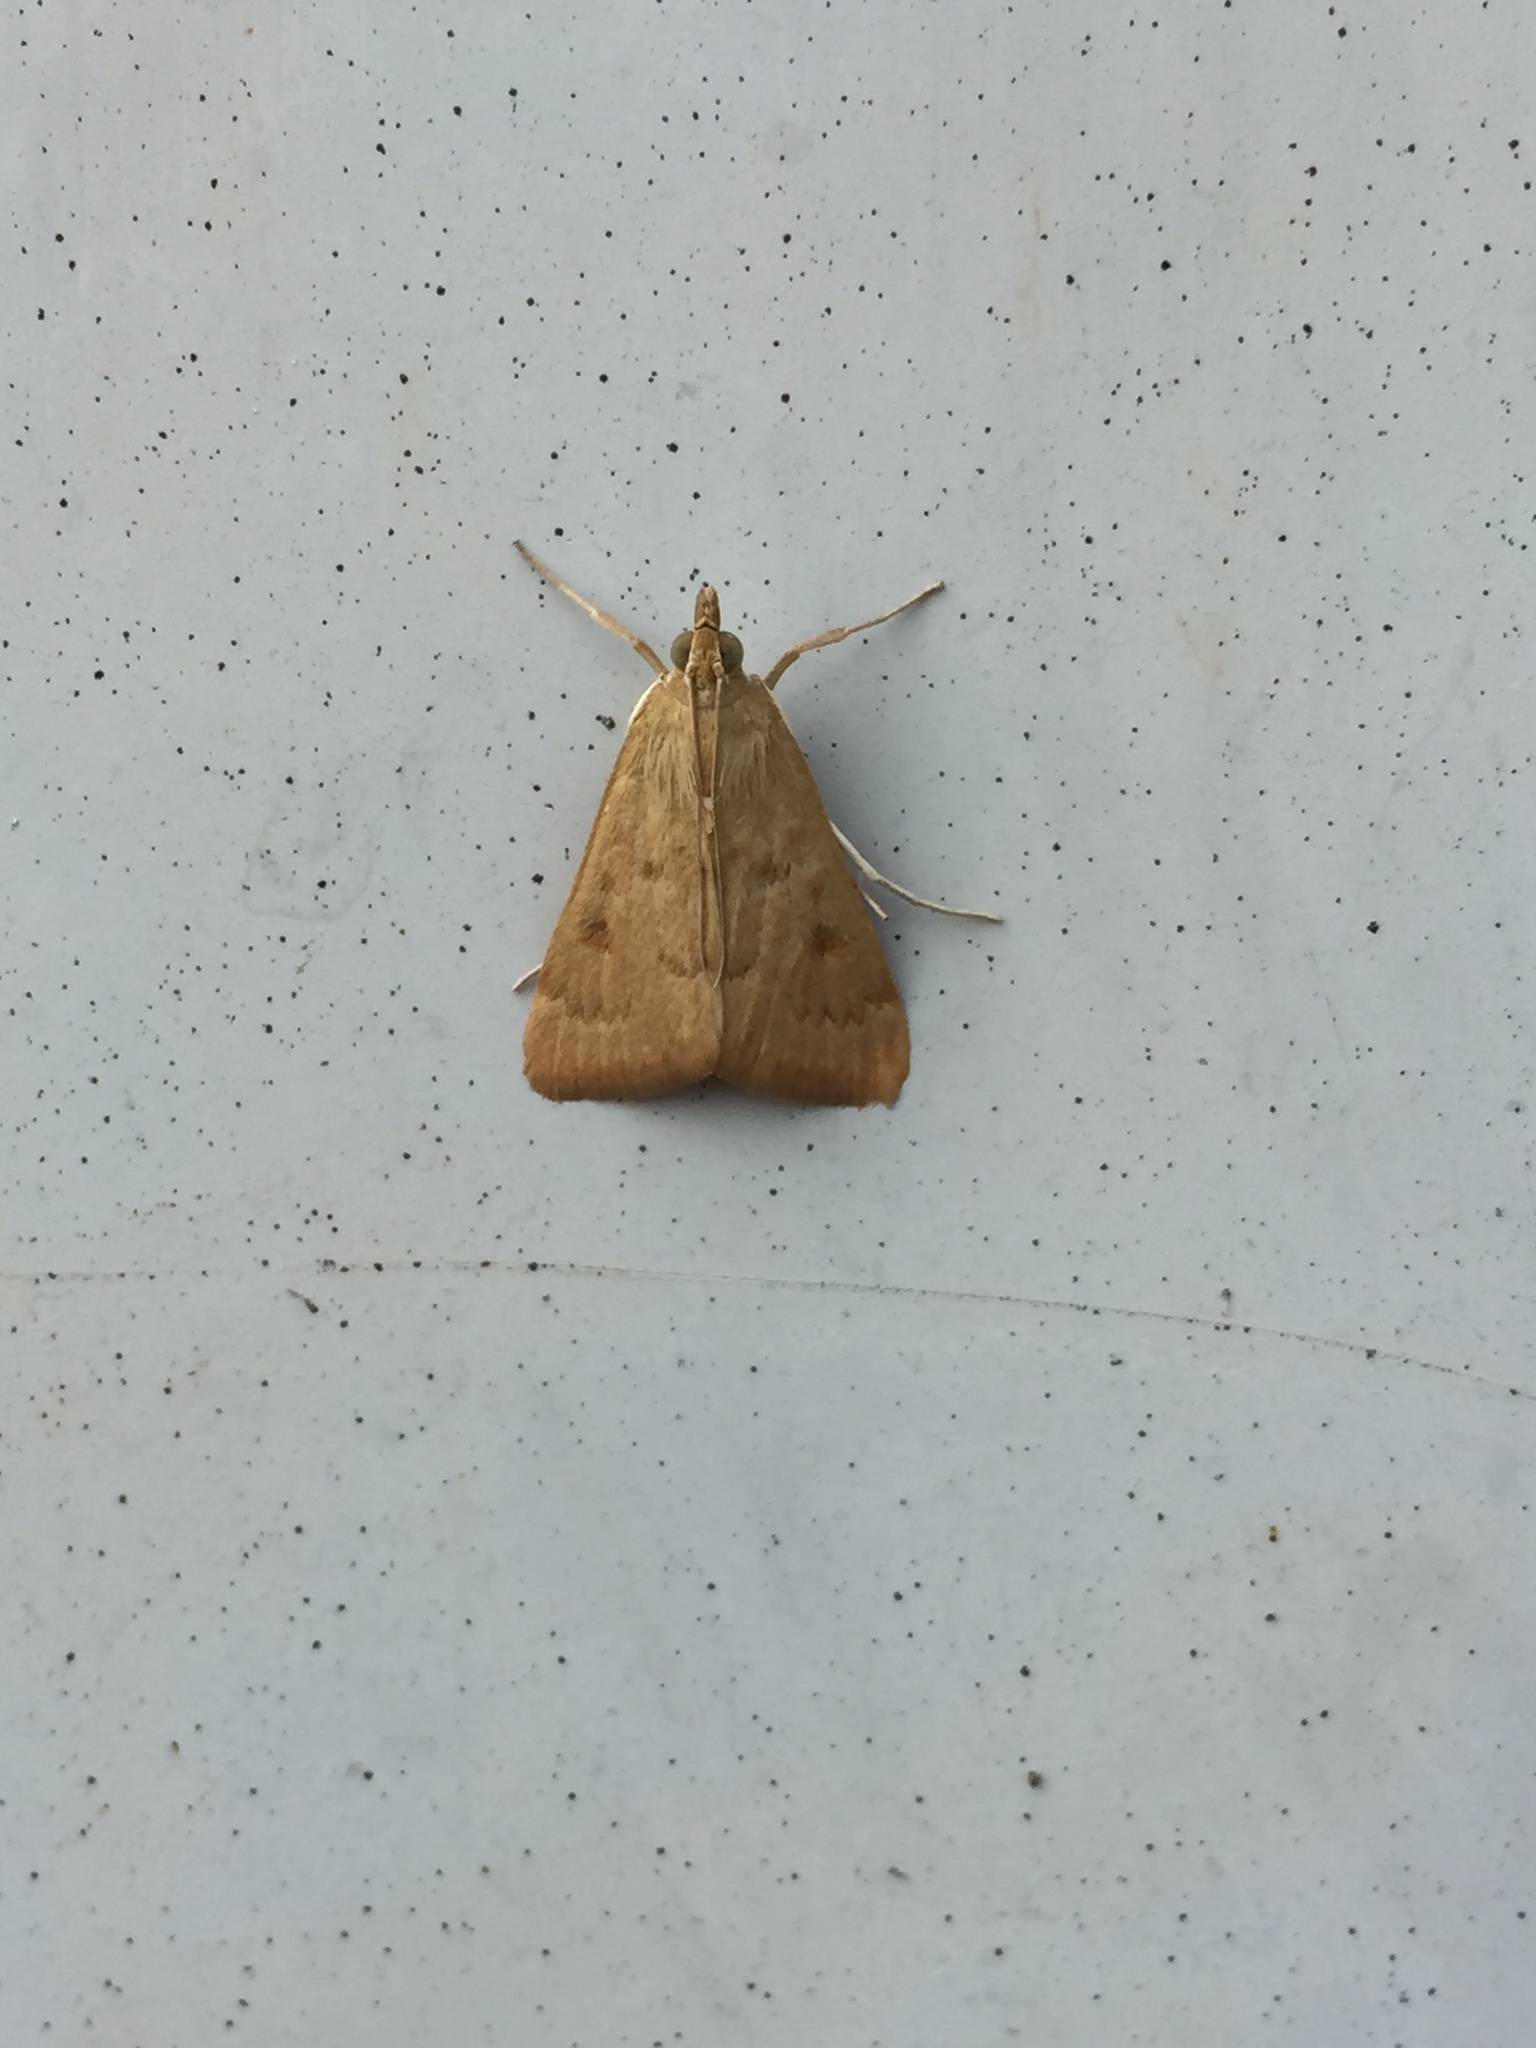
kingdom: Animalia
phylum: Arthropoda
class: Insecta
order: Lepidoptera
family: Crambidae
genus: Udea
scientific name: Udea rubigalis
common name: Celery leaftier moth
